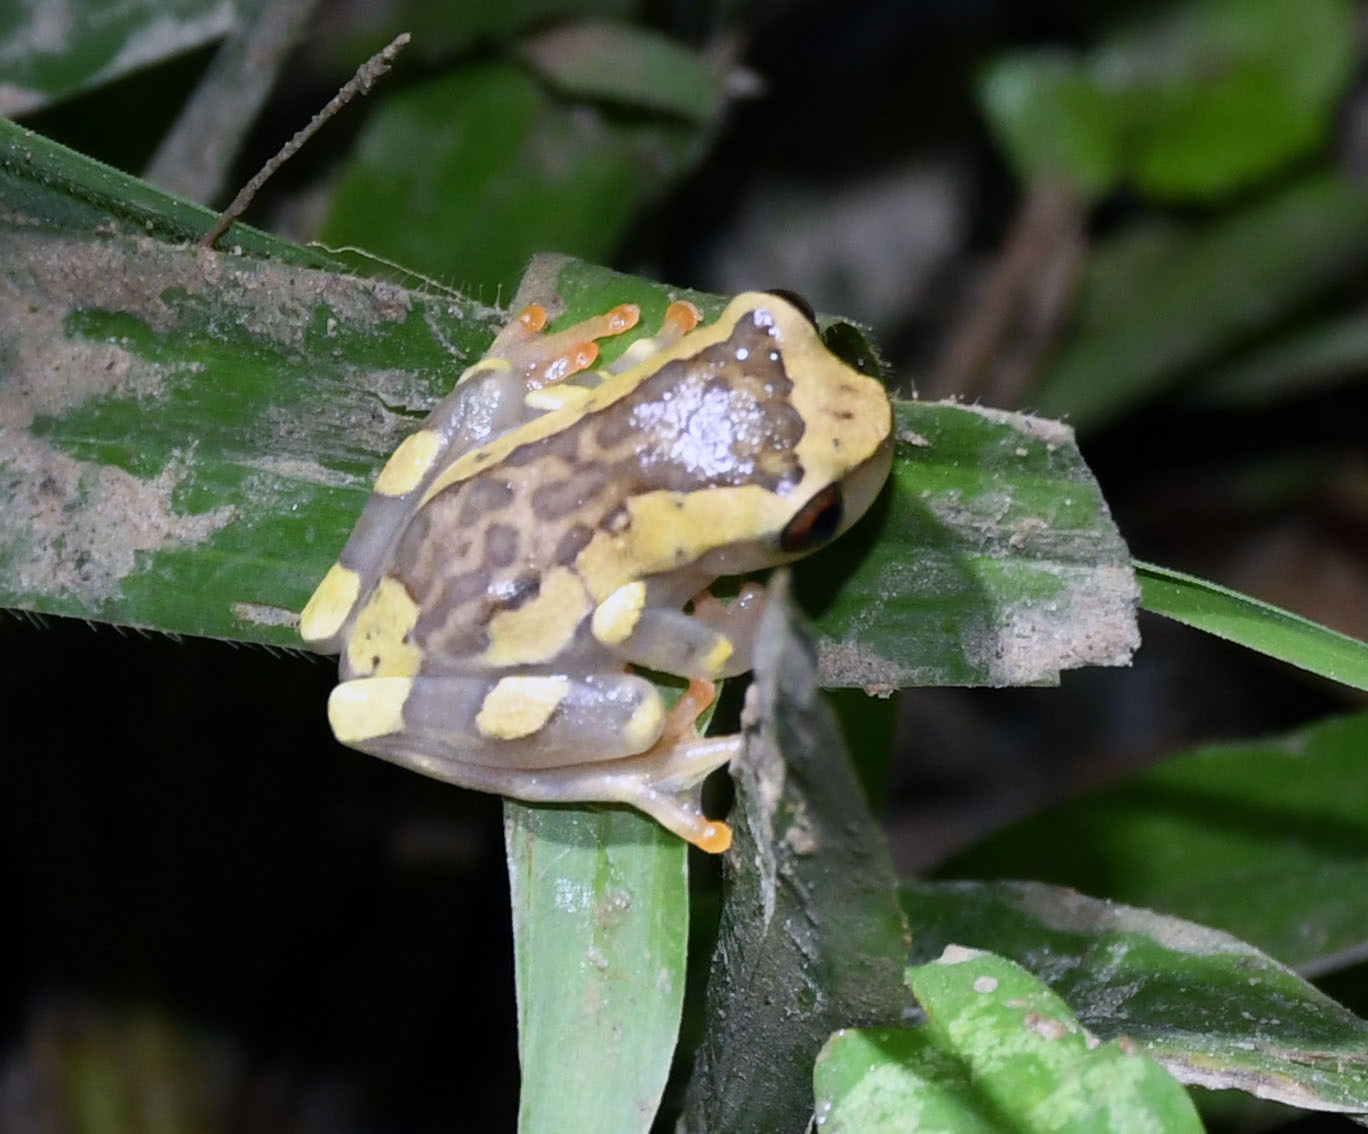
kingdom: Animalia
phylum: Chordata
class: Amphibia
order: Anura
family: Hylidae
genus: Dendropsophus
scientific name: Dendropsophus arndti
